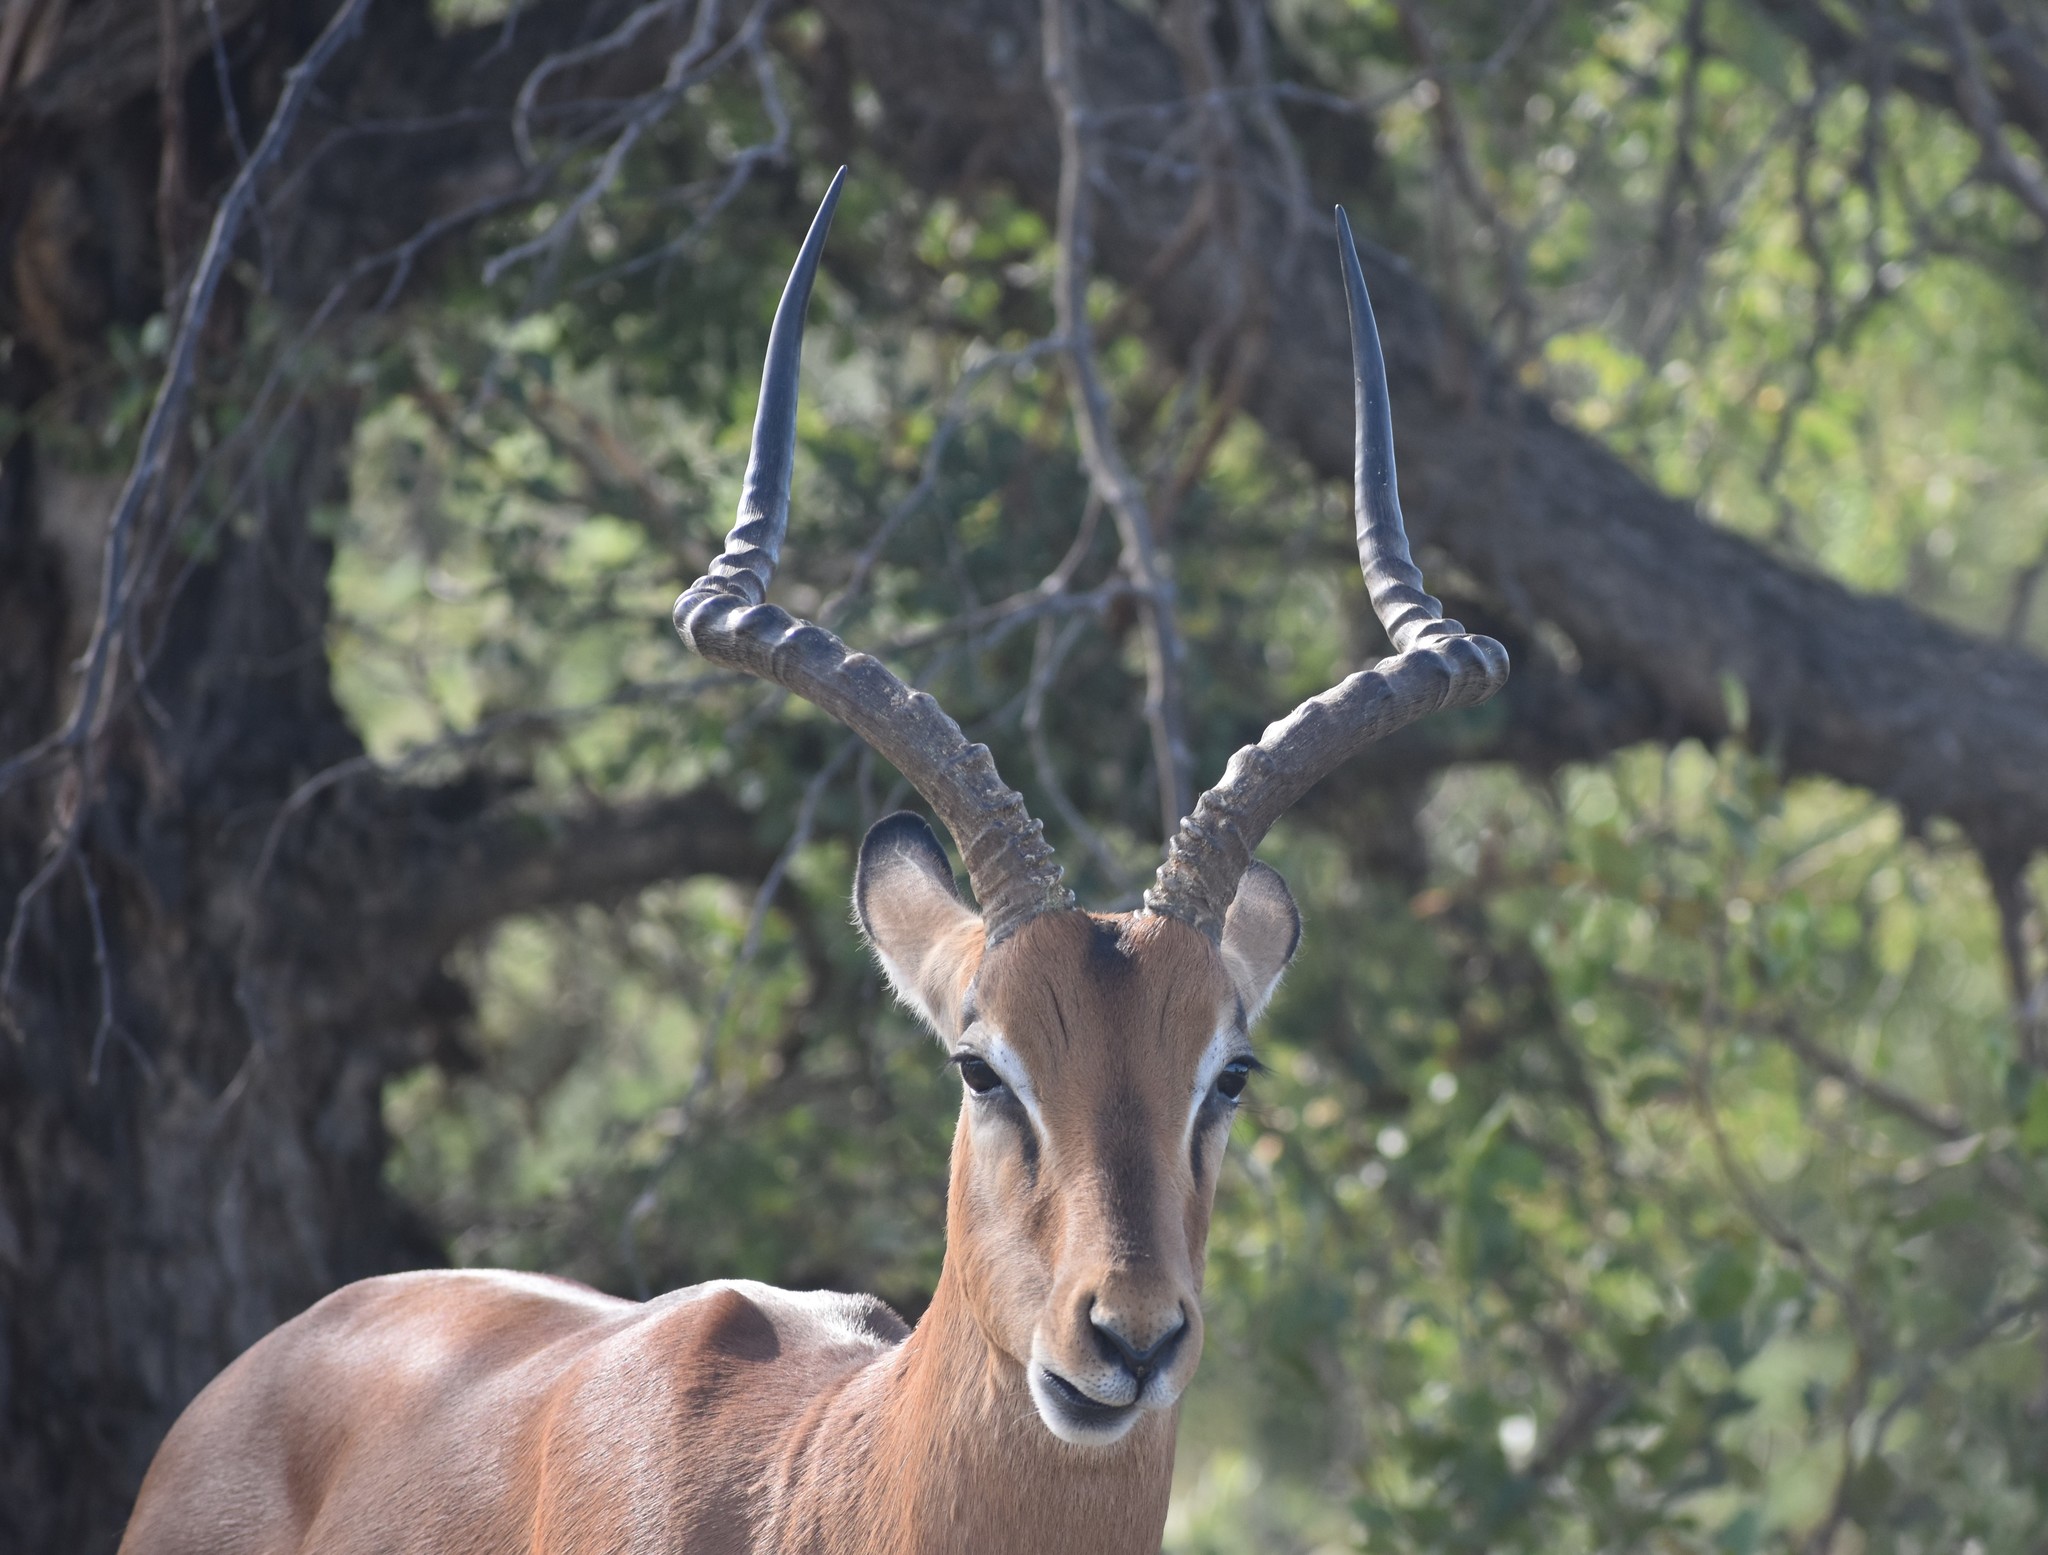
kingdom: Animalia
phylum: Chordata
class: Mammalia
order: Artiodactyla
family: Bovidae
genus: Aepyceros
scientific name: Aepyceros melampus
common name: Impala
